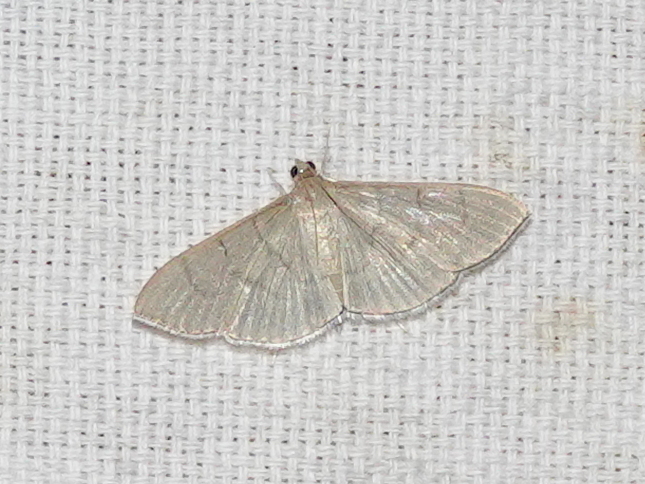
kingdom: Animalia
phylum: Arthropoda
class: Insecta
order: Lepidoptera
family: Crambidae
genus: Lamprophaia
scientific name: Lamprophaia ablactalis
